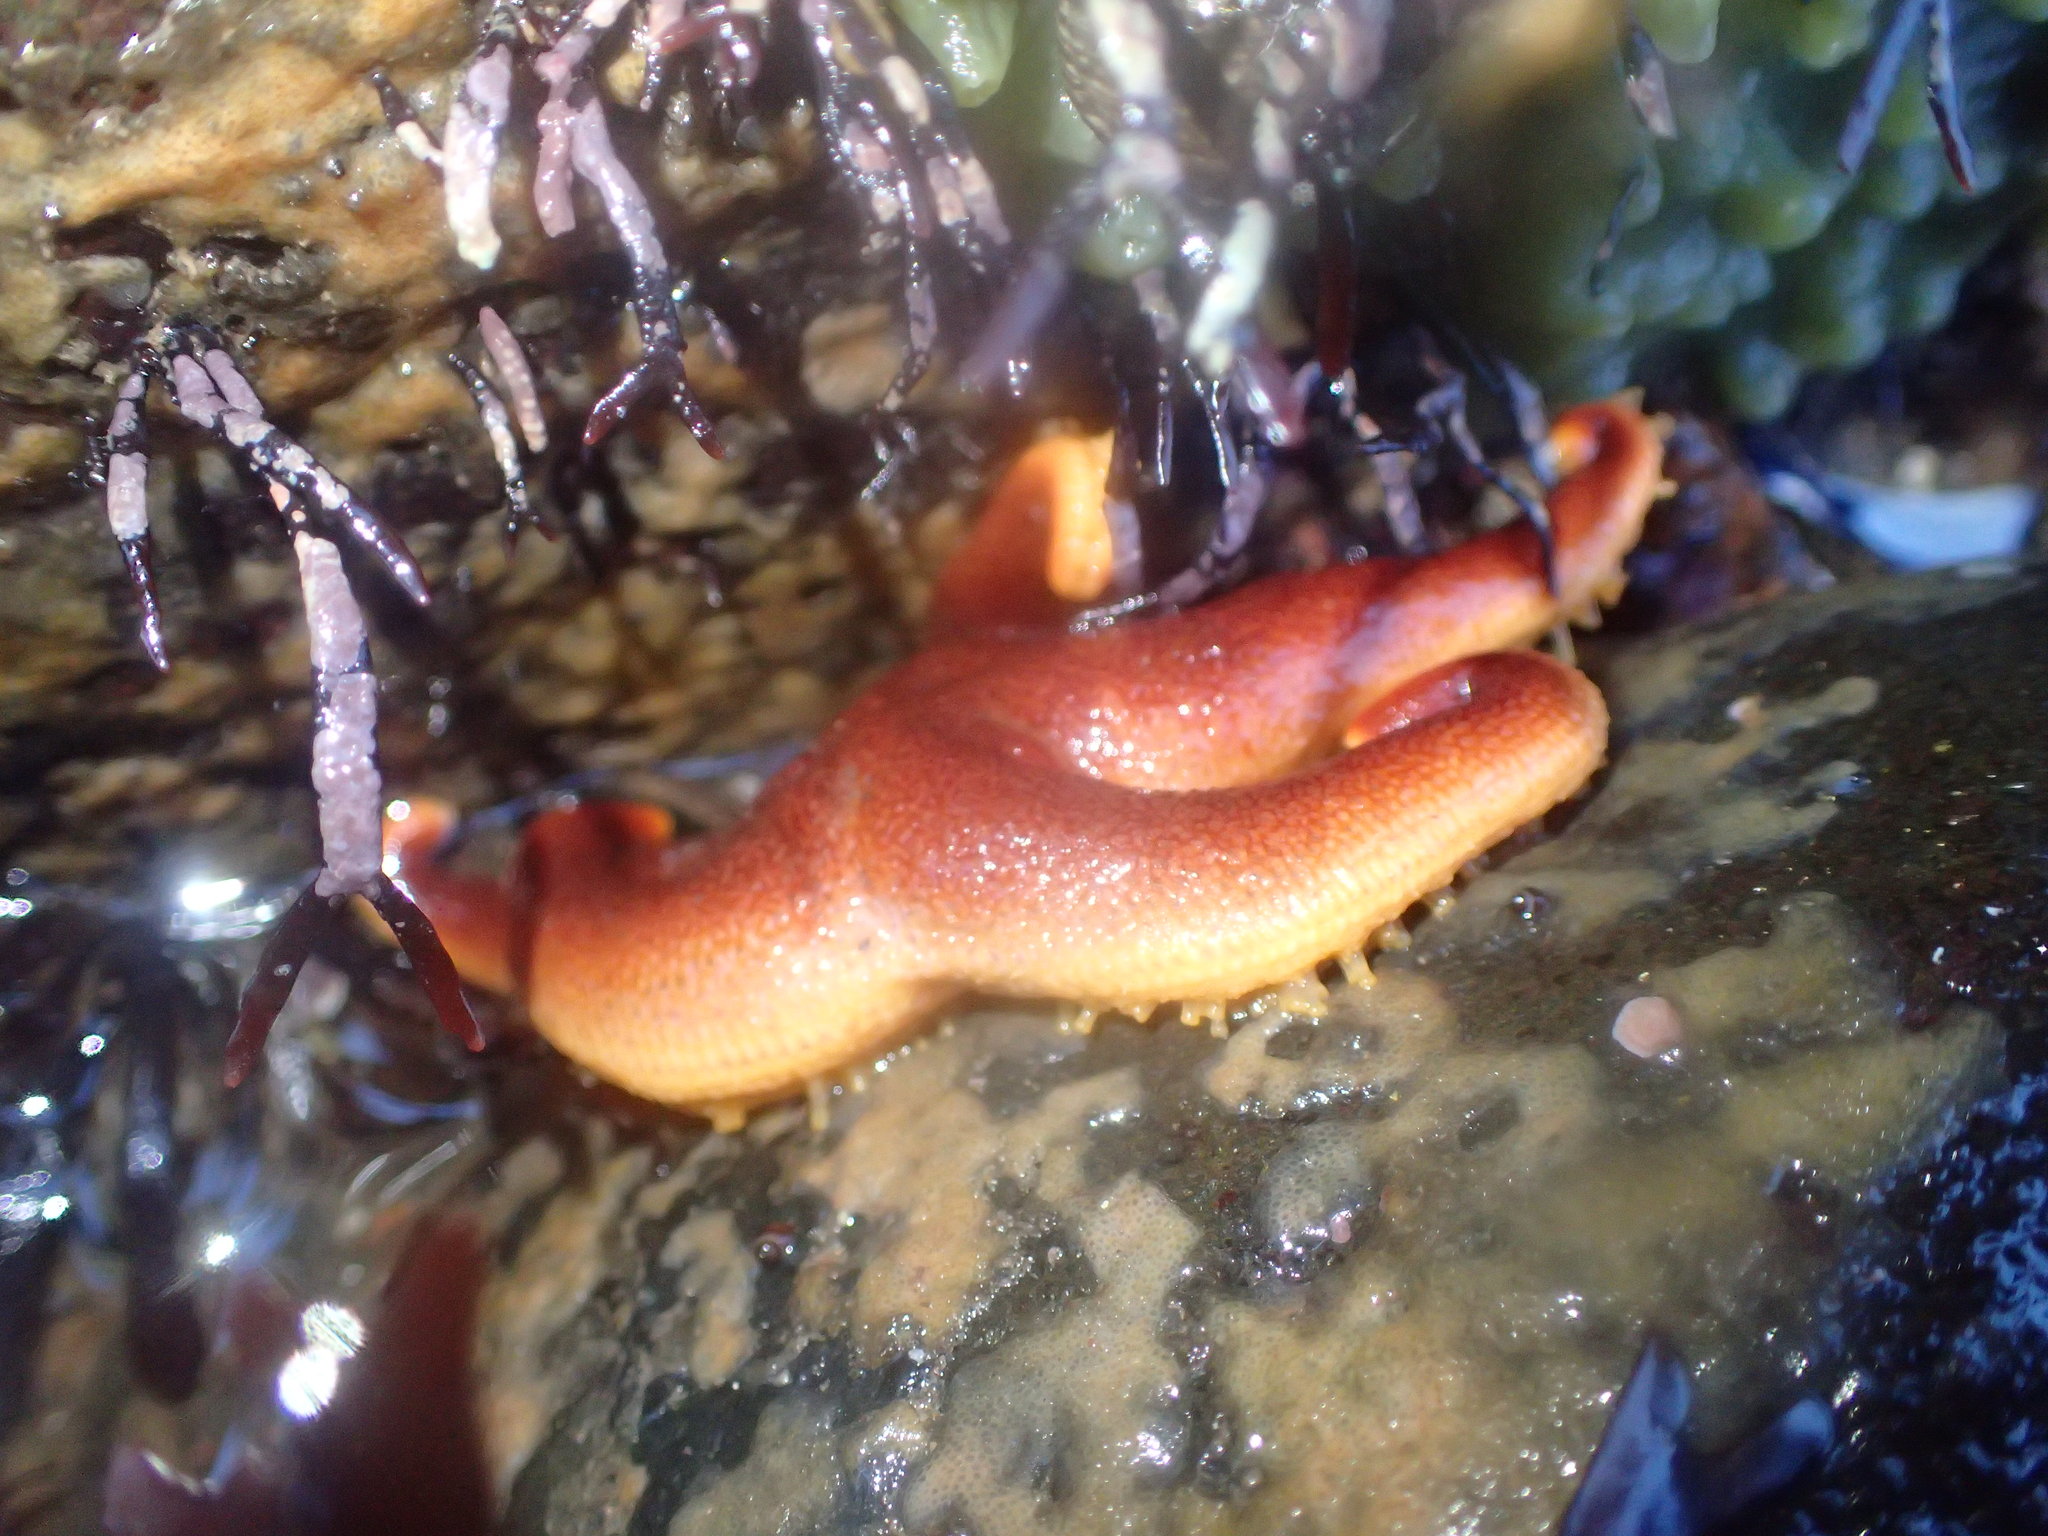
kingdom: Animalia
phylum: Echinodermata
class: Asteroidea
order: Spinulosida
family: Echinasteridae
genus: Henricia
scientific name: Henricia sanguinolenta
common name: Blood star
